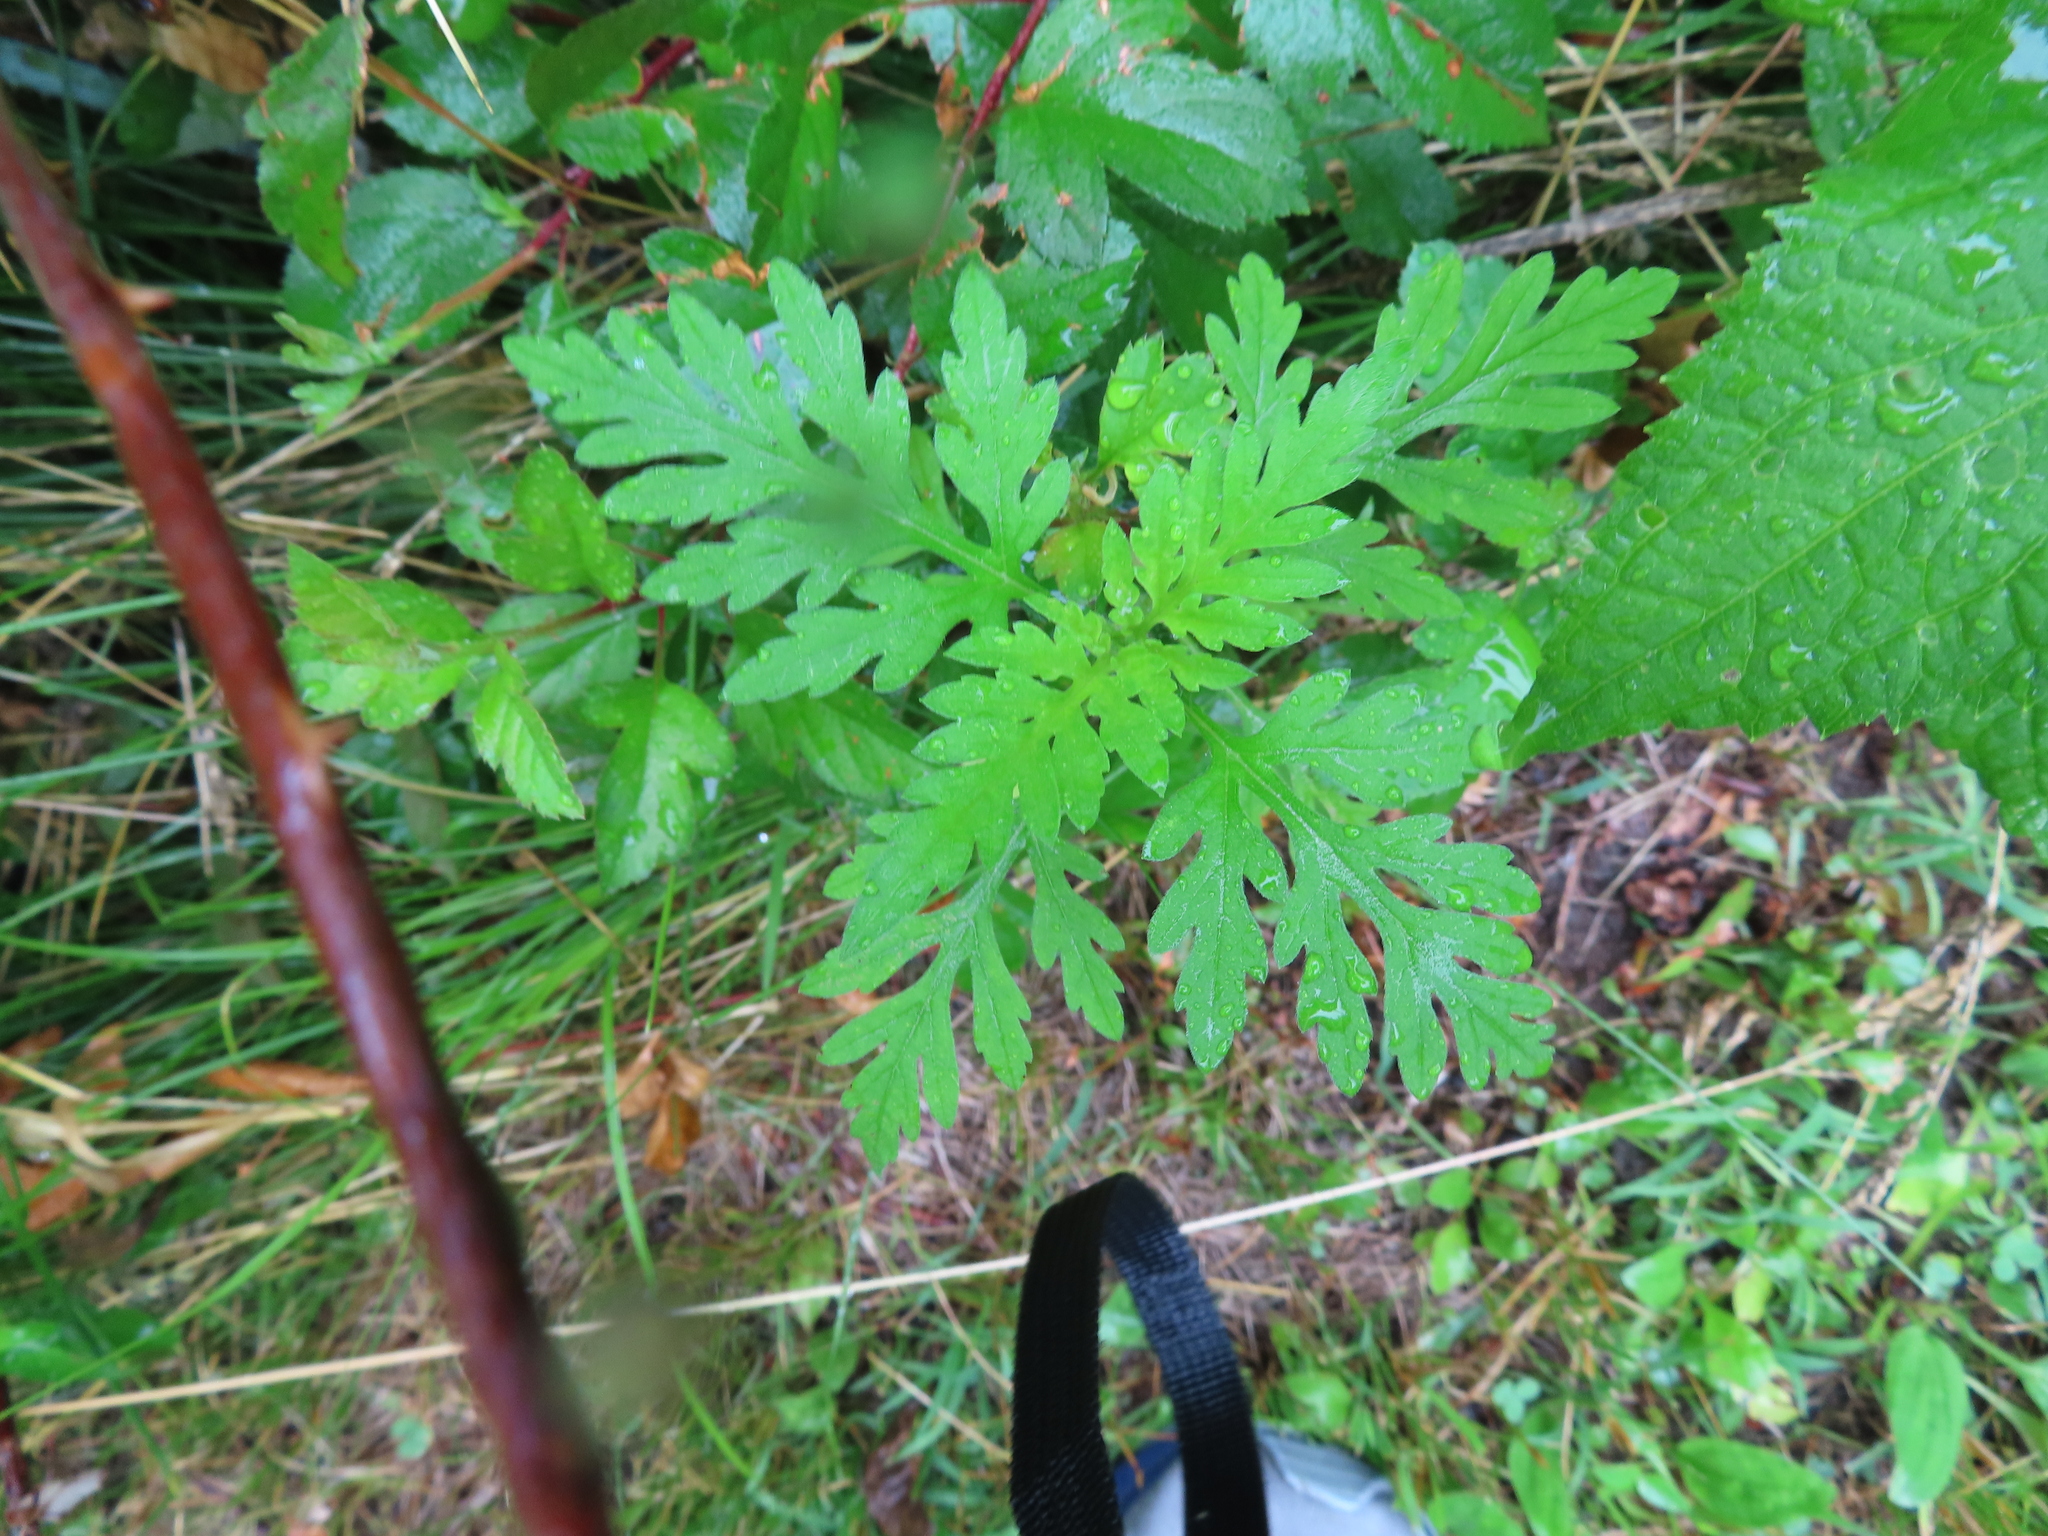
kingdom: Plantae
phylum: Tracheophyta
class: Magnoliopsida
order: Asterales
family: Asteraceae
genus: Ambrosia
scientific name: Ambrosia artemisiifolia
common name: Annual ragweed
